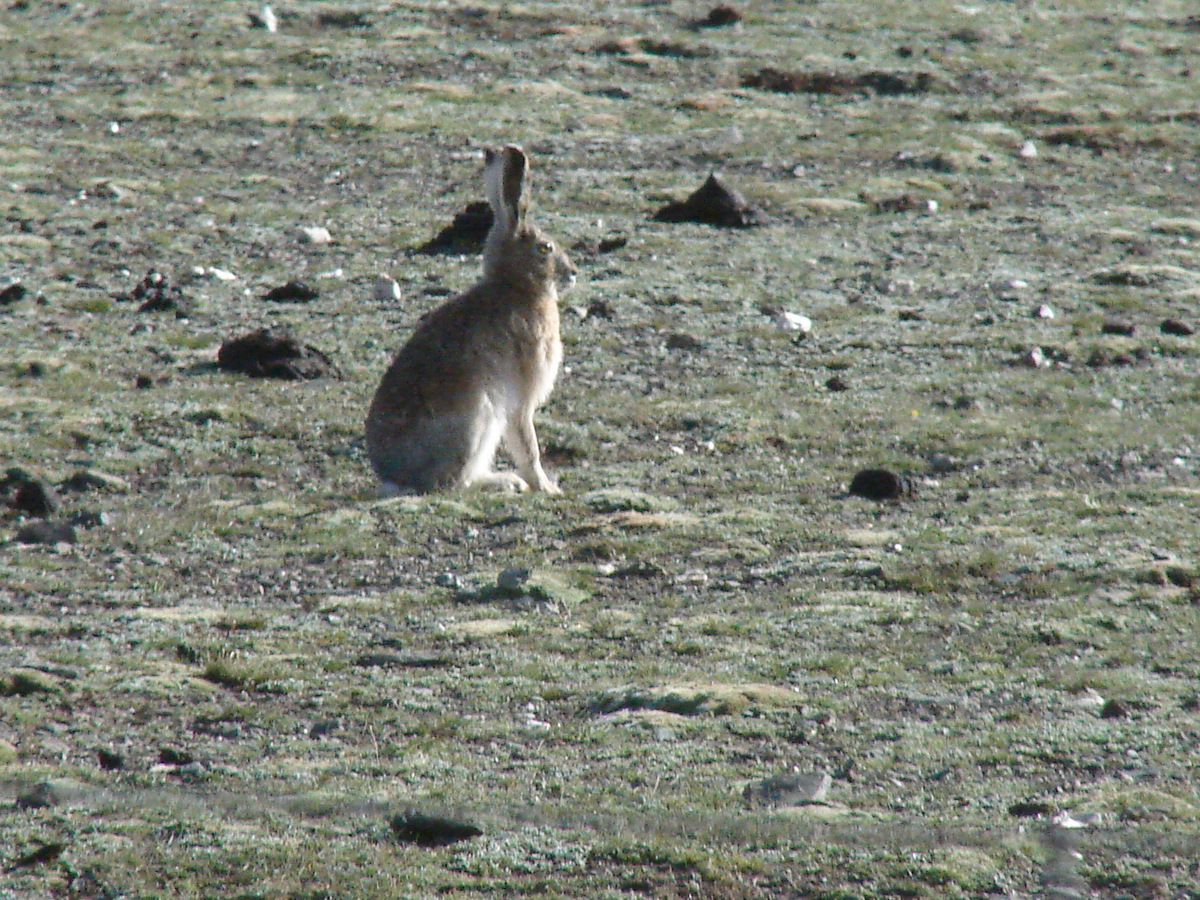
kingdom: Animalia
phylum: Chordata
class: Mammalia
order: Lagomorpha
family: Leporidae
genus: Lepus
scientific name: Lepus oiostolus
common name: Woolly hare
